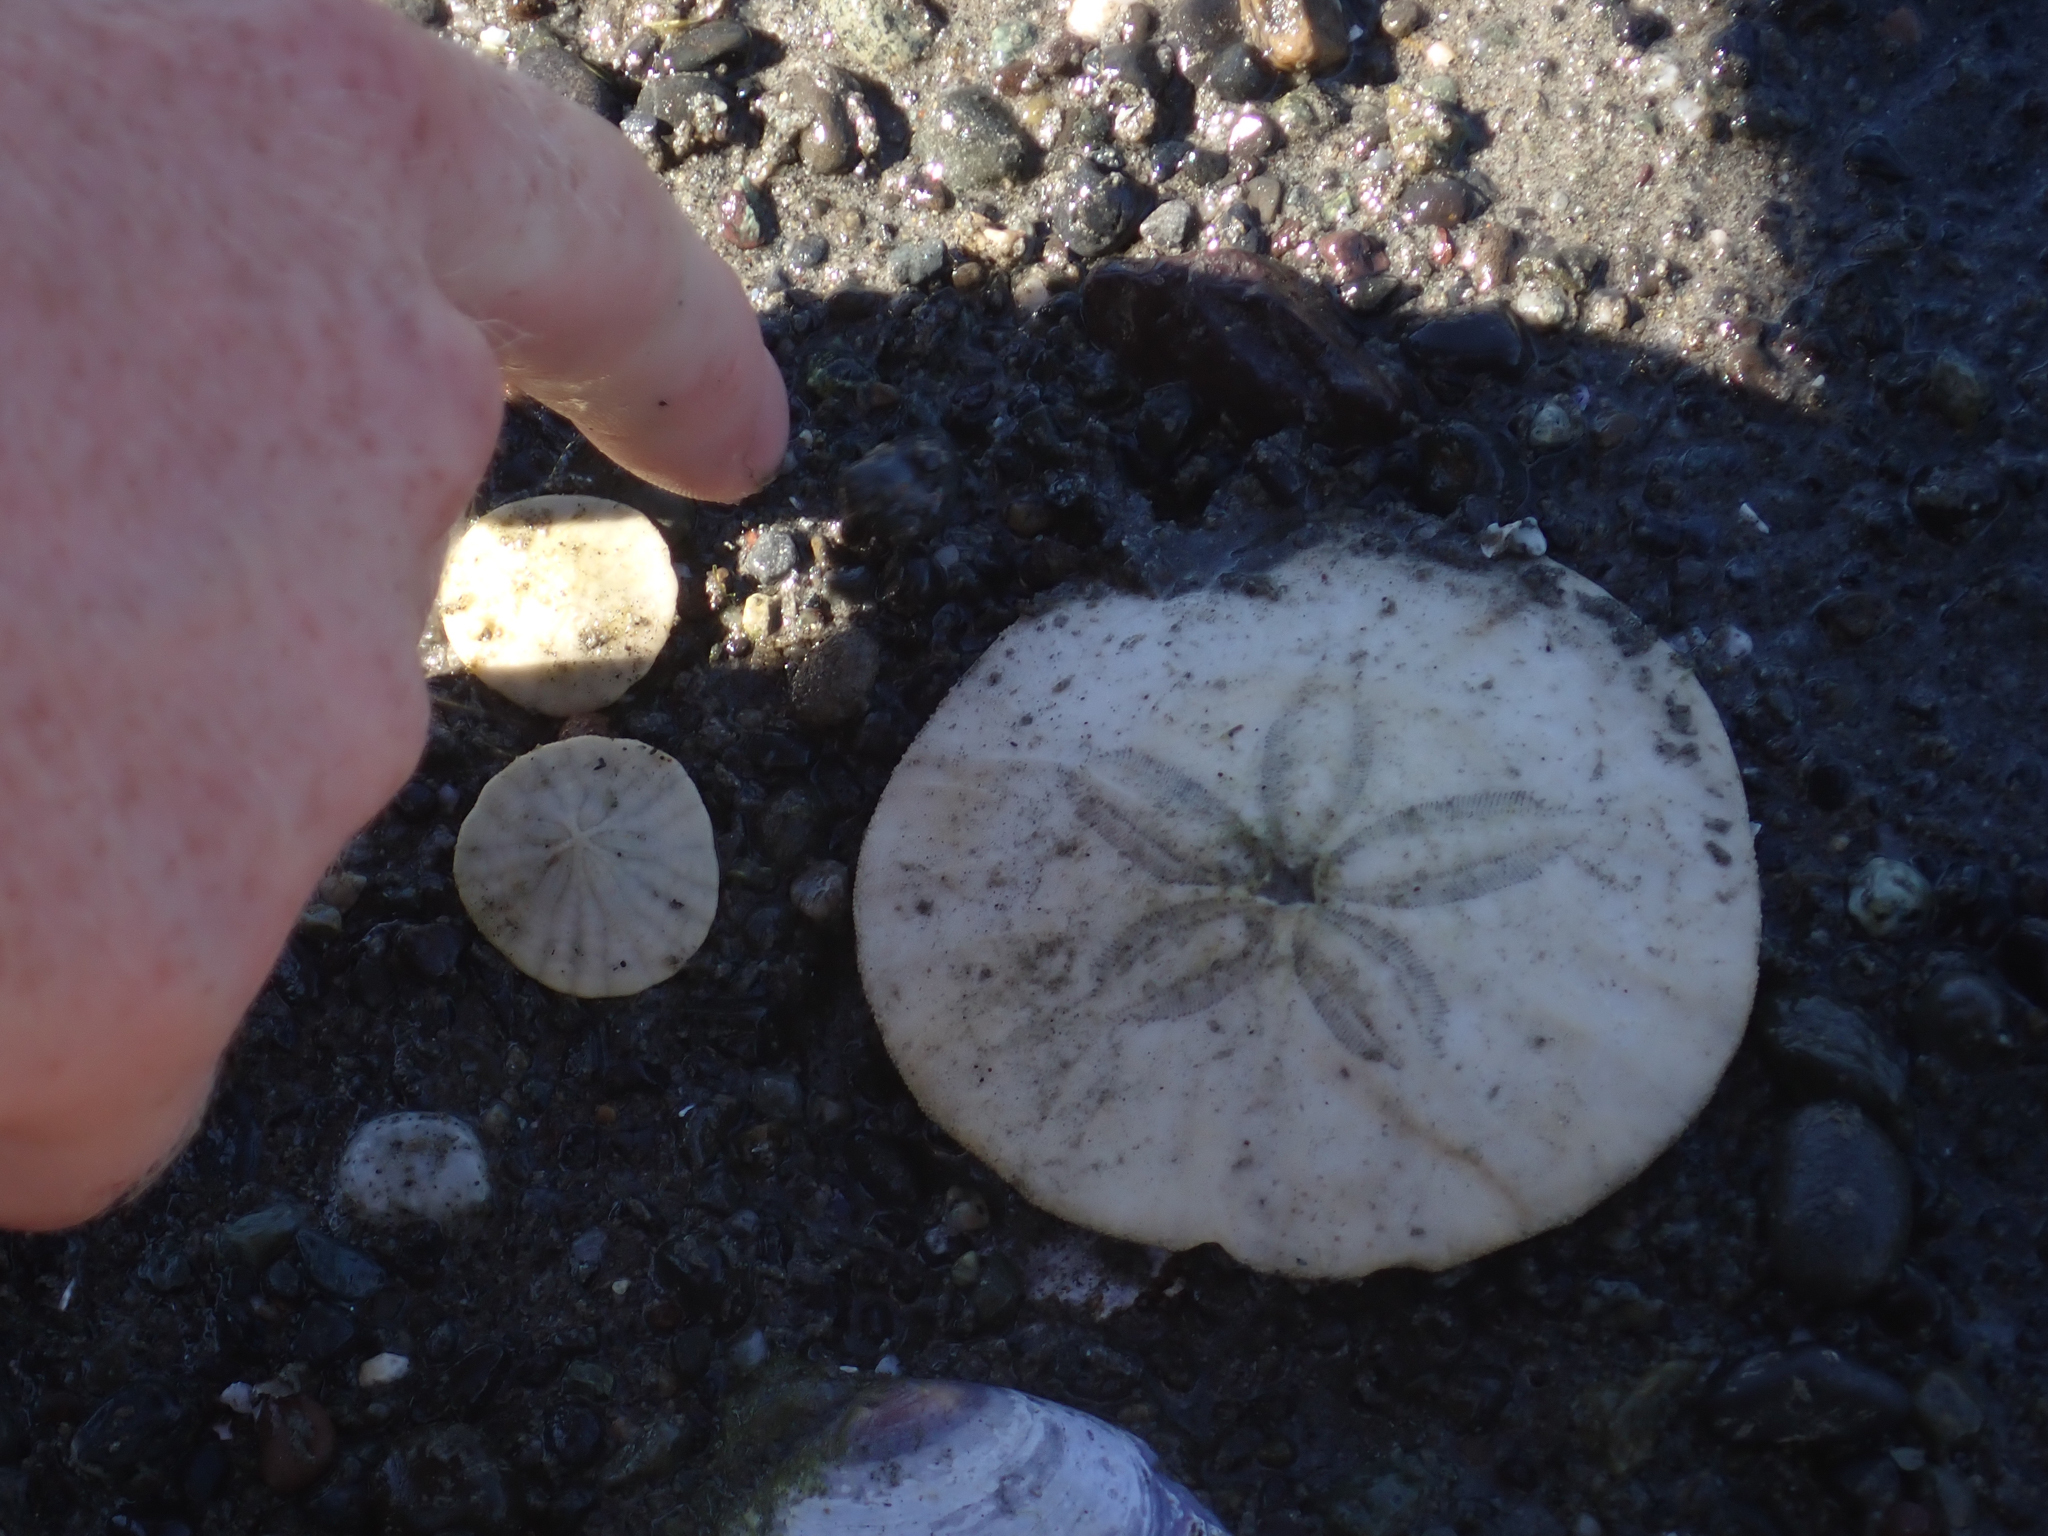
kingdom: Animalia
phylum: Echinodermata
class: Echinoidea
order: Echinolampadacea
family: Dendrasteridae
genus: Dendraster
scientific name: Dendraster excentricus
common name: Eccentric sand dollar sea urchin
